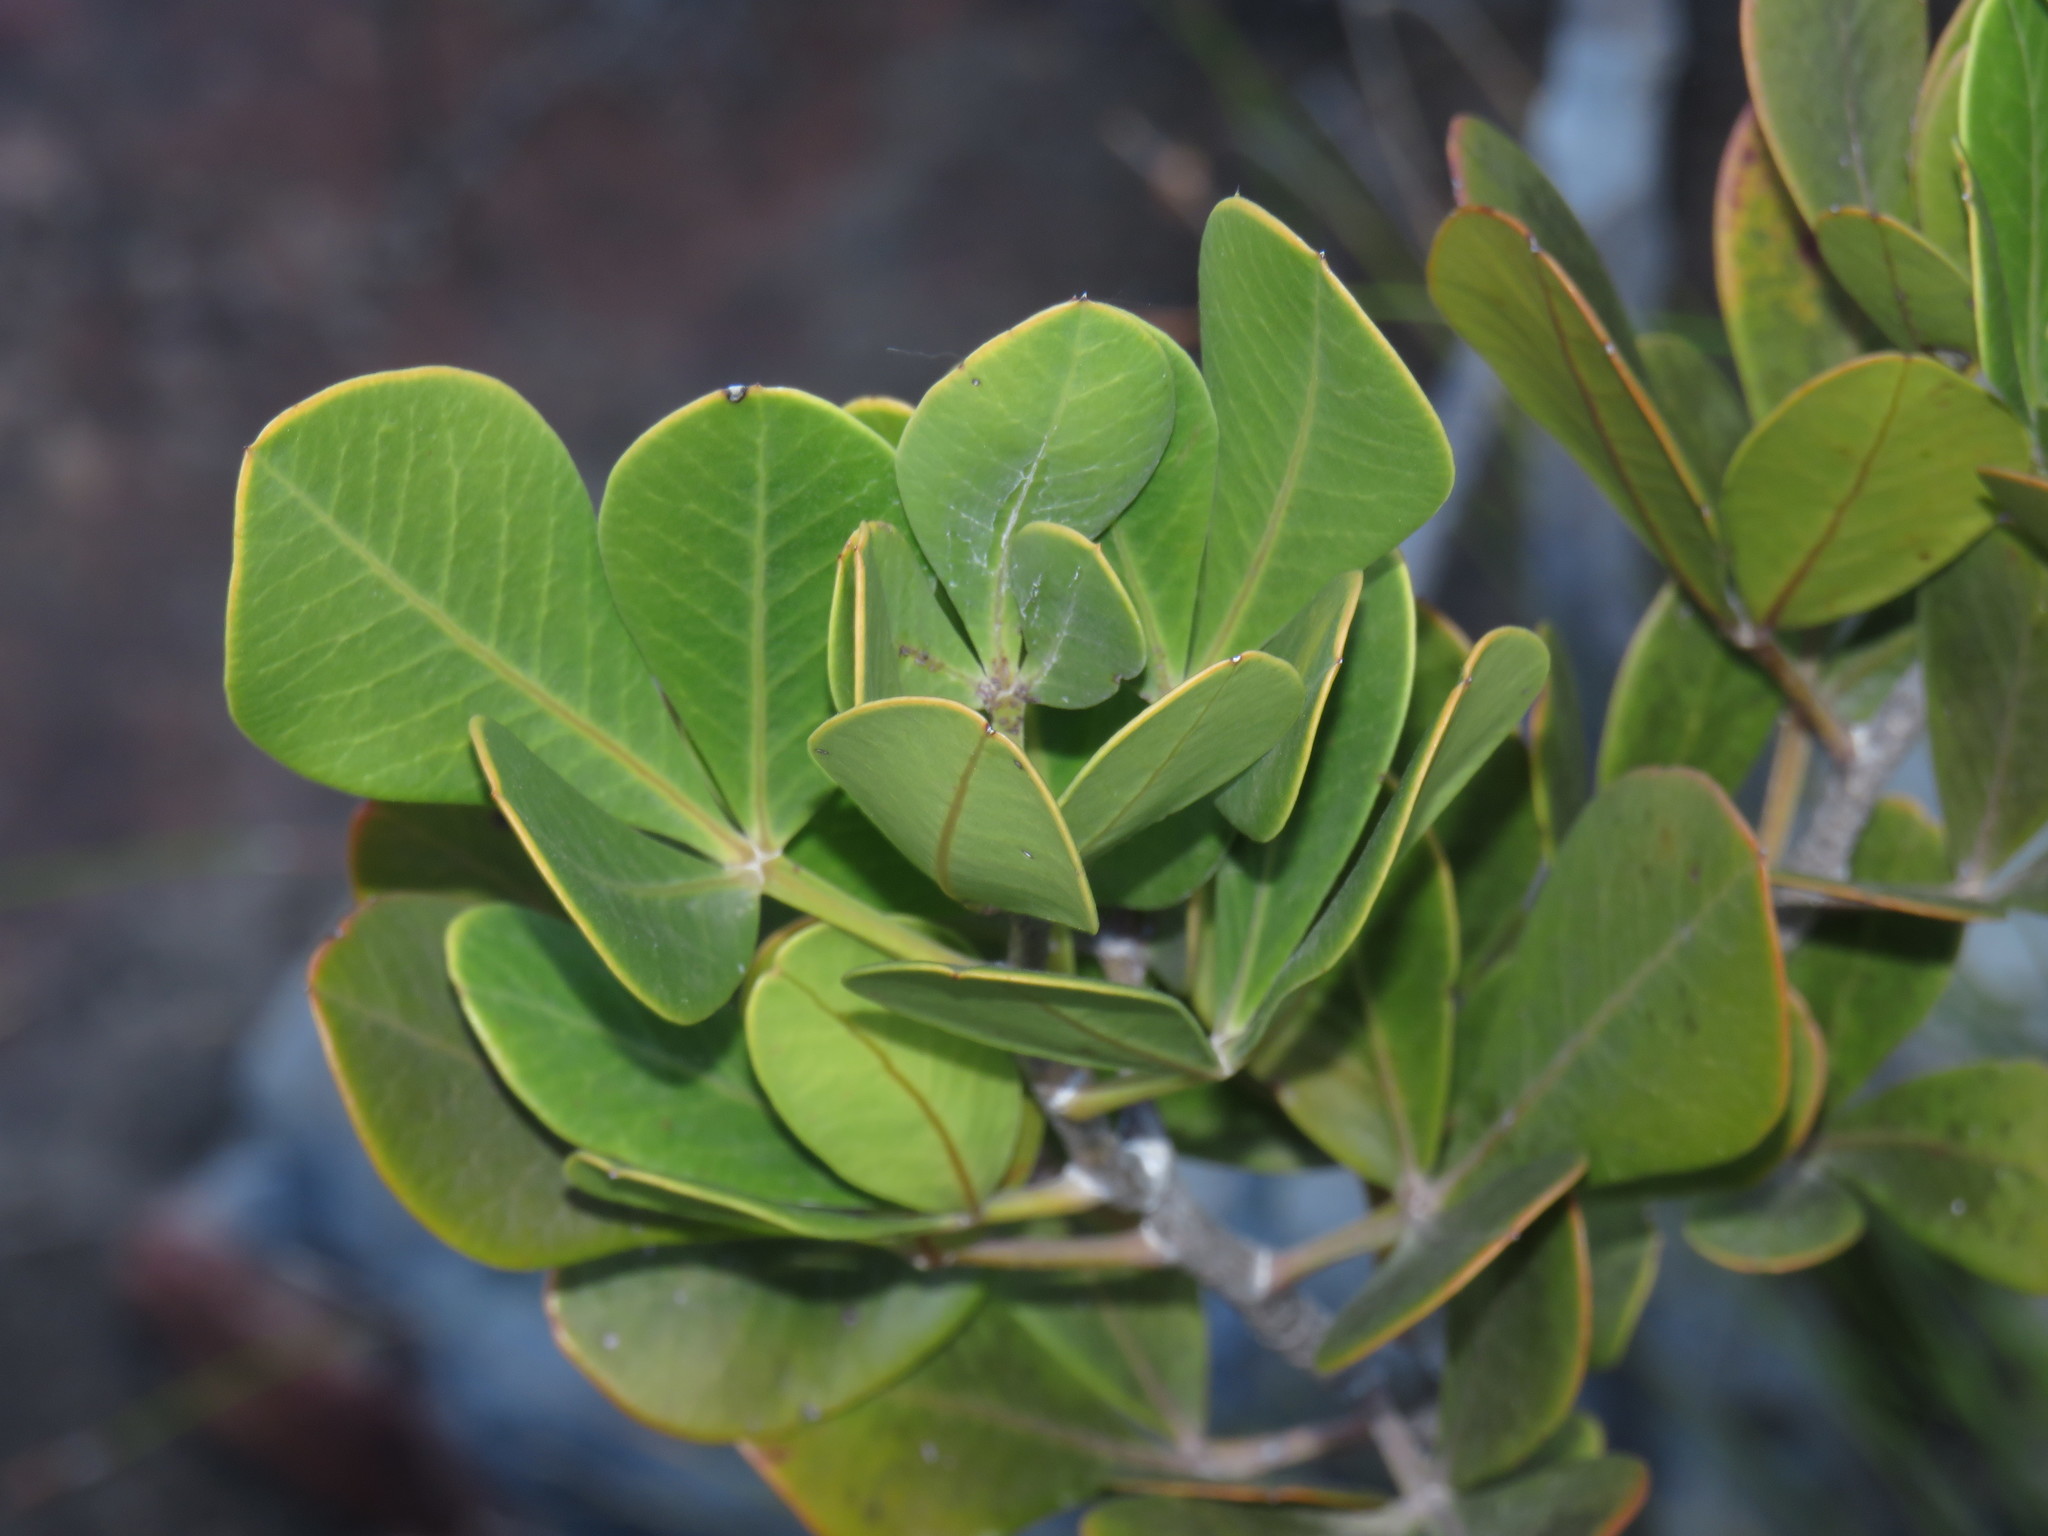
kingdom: Plantae
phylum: Tracheophyta
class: Magnoliopsida
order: Sapindales
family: Anacardiaceae
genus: Searsia
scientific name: Searsia scytophylla
